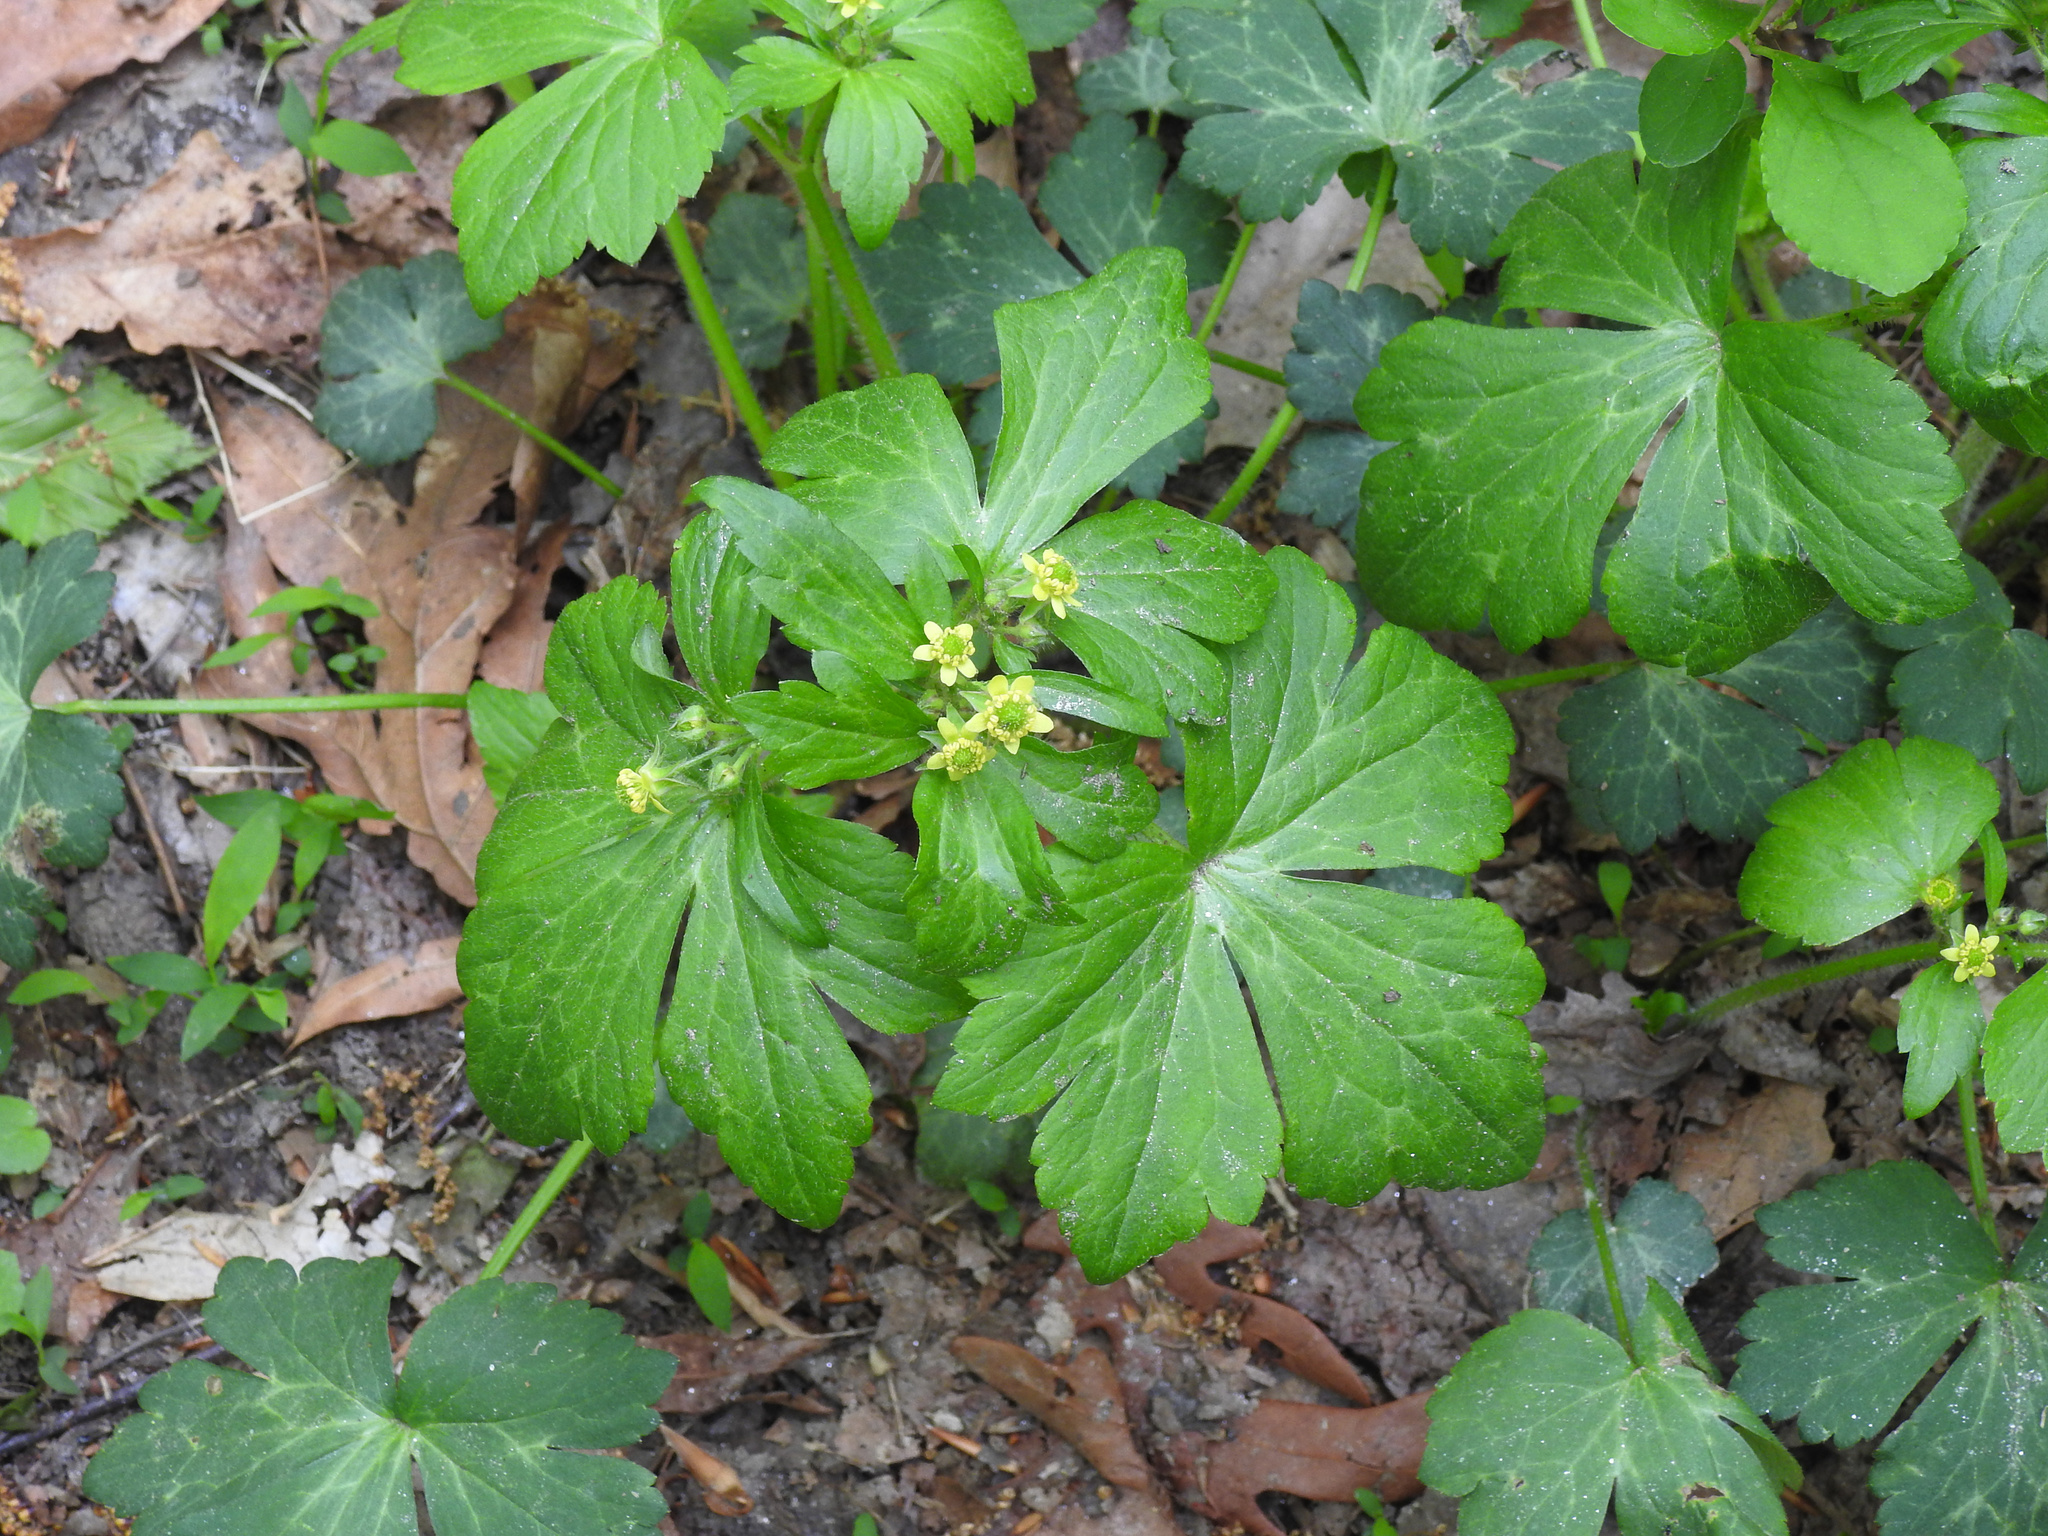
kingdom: Plantae
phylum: Tracheophyta
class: Magnoliopsida
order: Ranunculales
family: Ranunculaceae
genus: Ranunculus
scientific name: Ranunculus recurvatus
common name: Blisterwort
